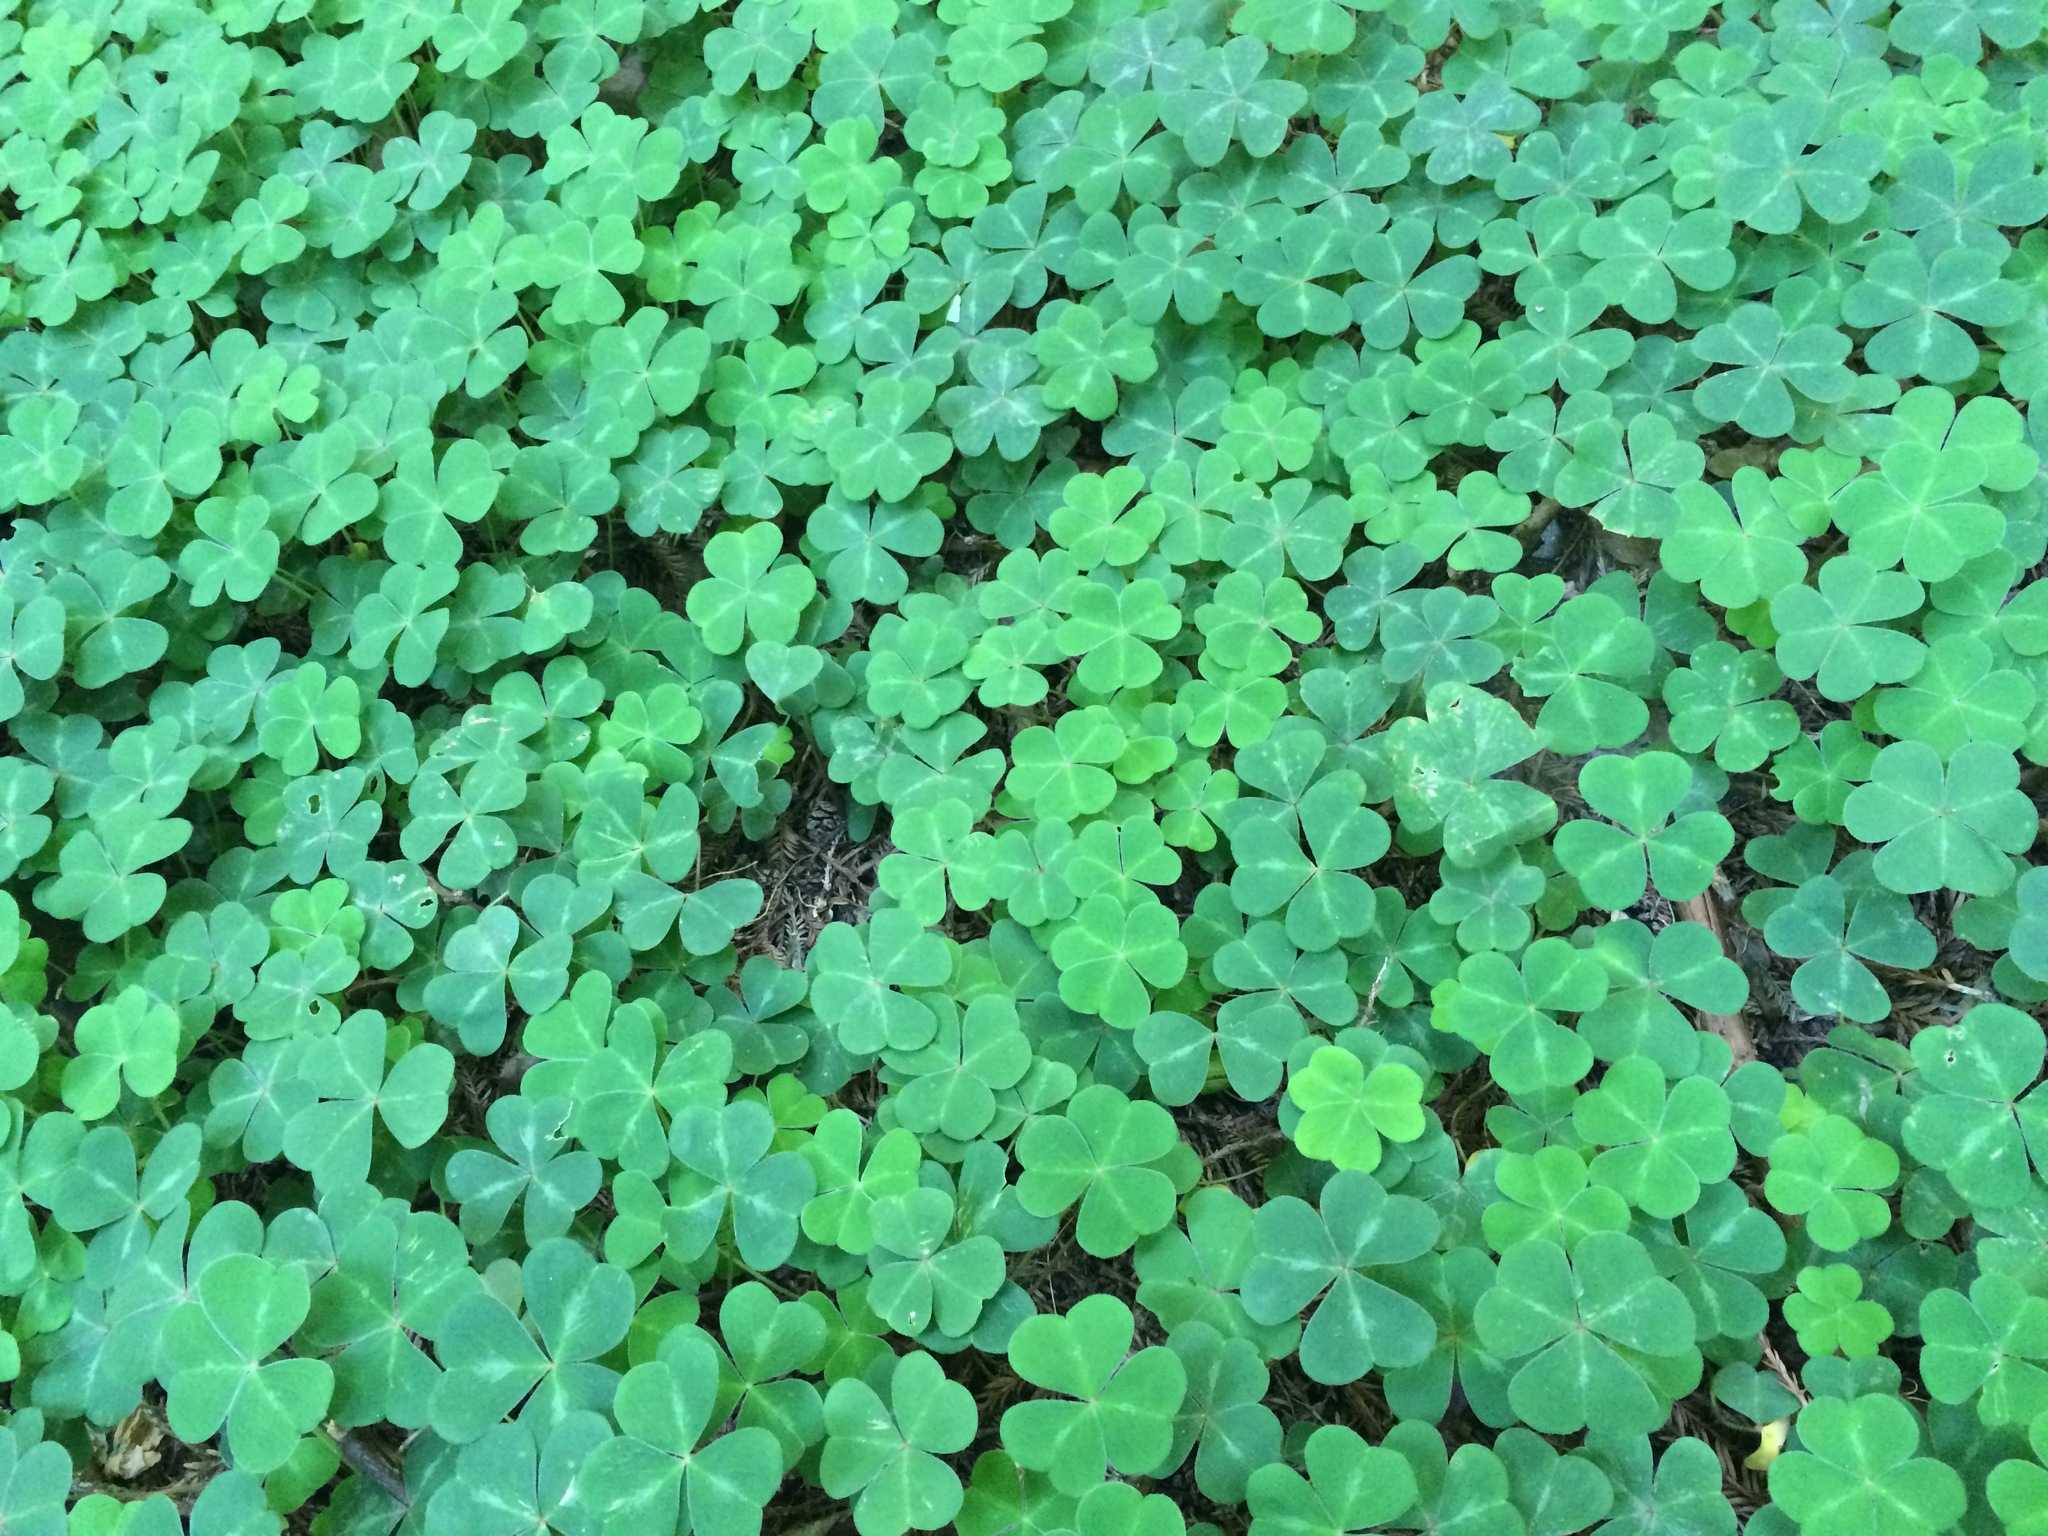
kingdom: Plantae
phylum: Tracheophyta
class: Magnoliopsida
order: Oxalidales
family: Oxalidaceae
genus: Oxalis
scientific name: Oxalis oregana
